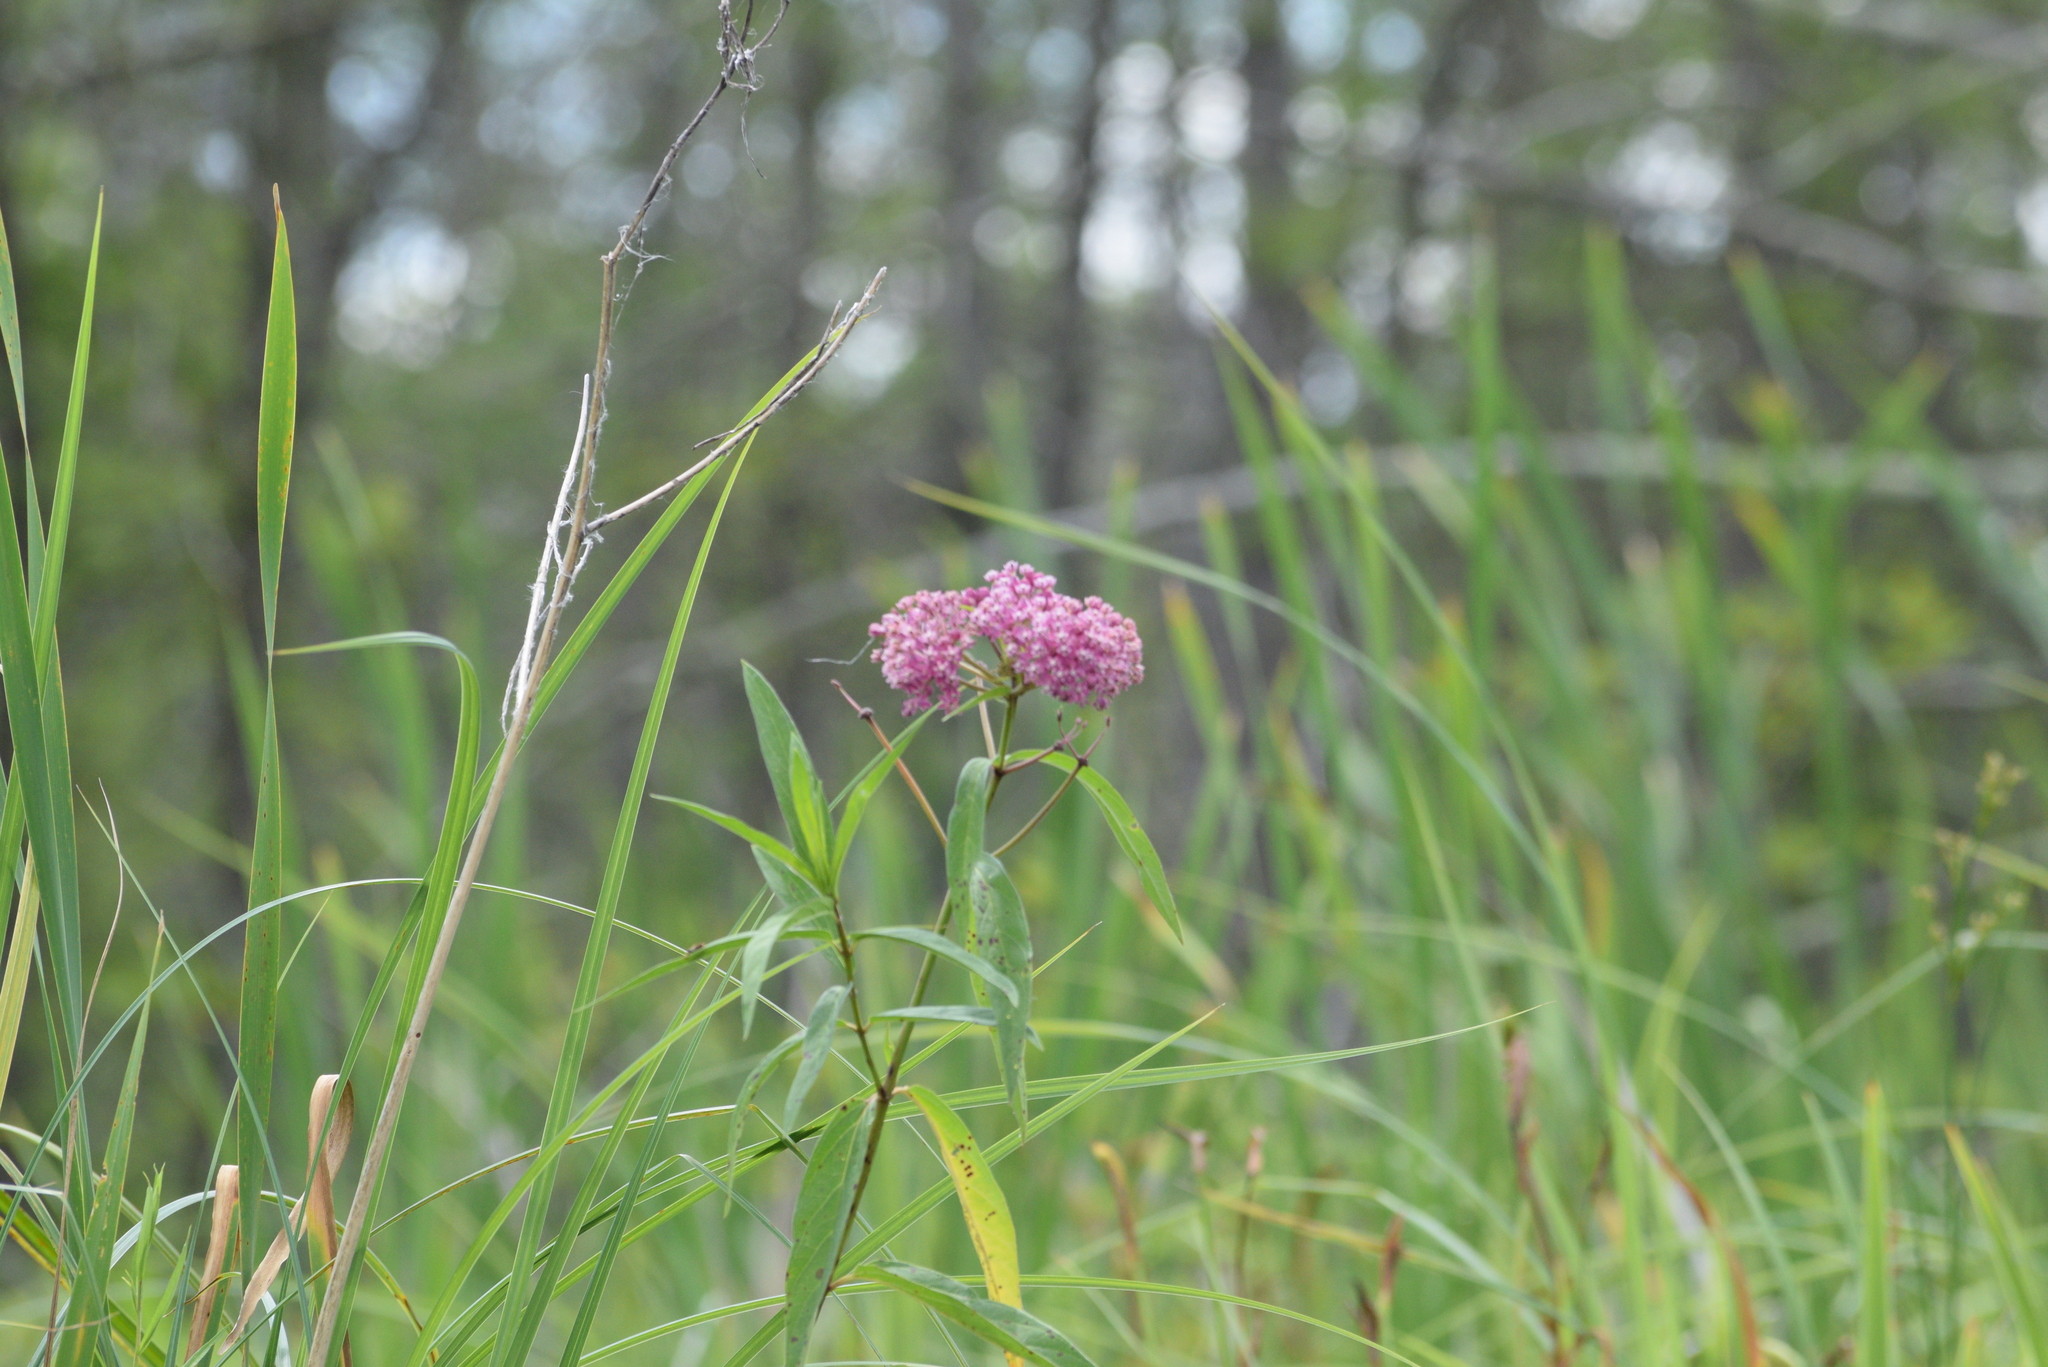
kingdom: Plantae
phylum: Tracheophyta
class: Magnoliopsida
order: Gentianales
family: Apocynaceae
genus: Asclepias
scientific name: Asclepias incarnata
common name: Swamp milkweed
